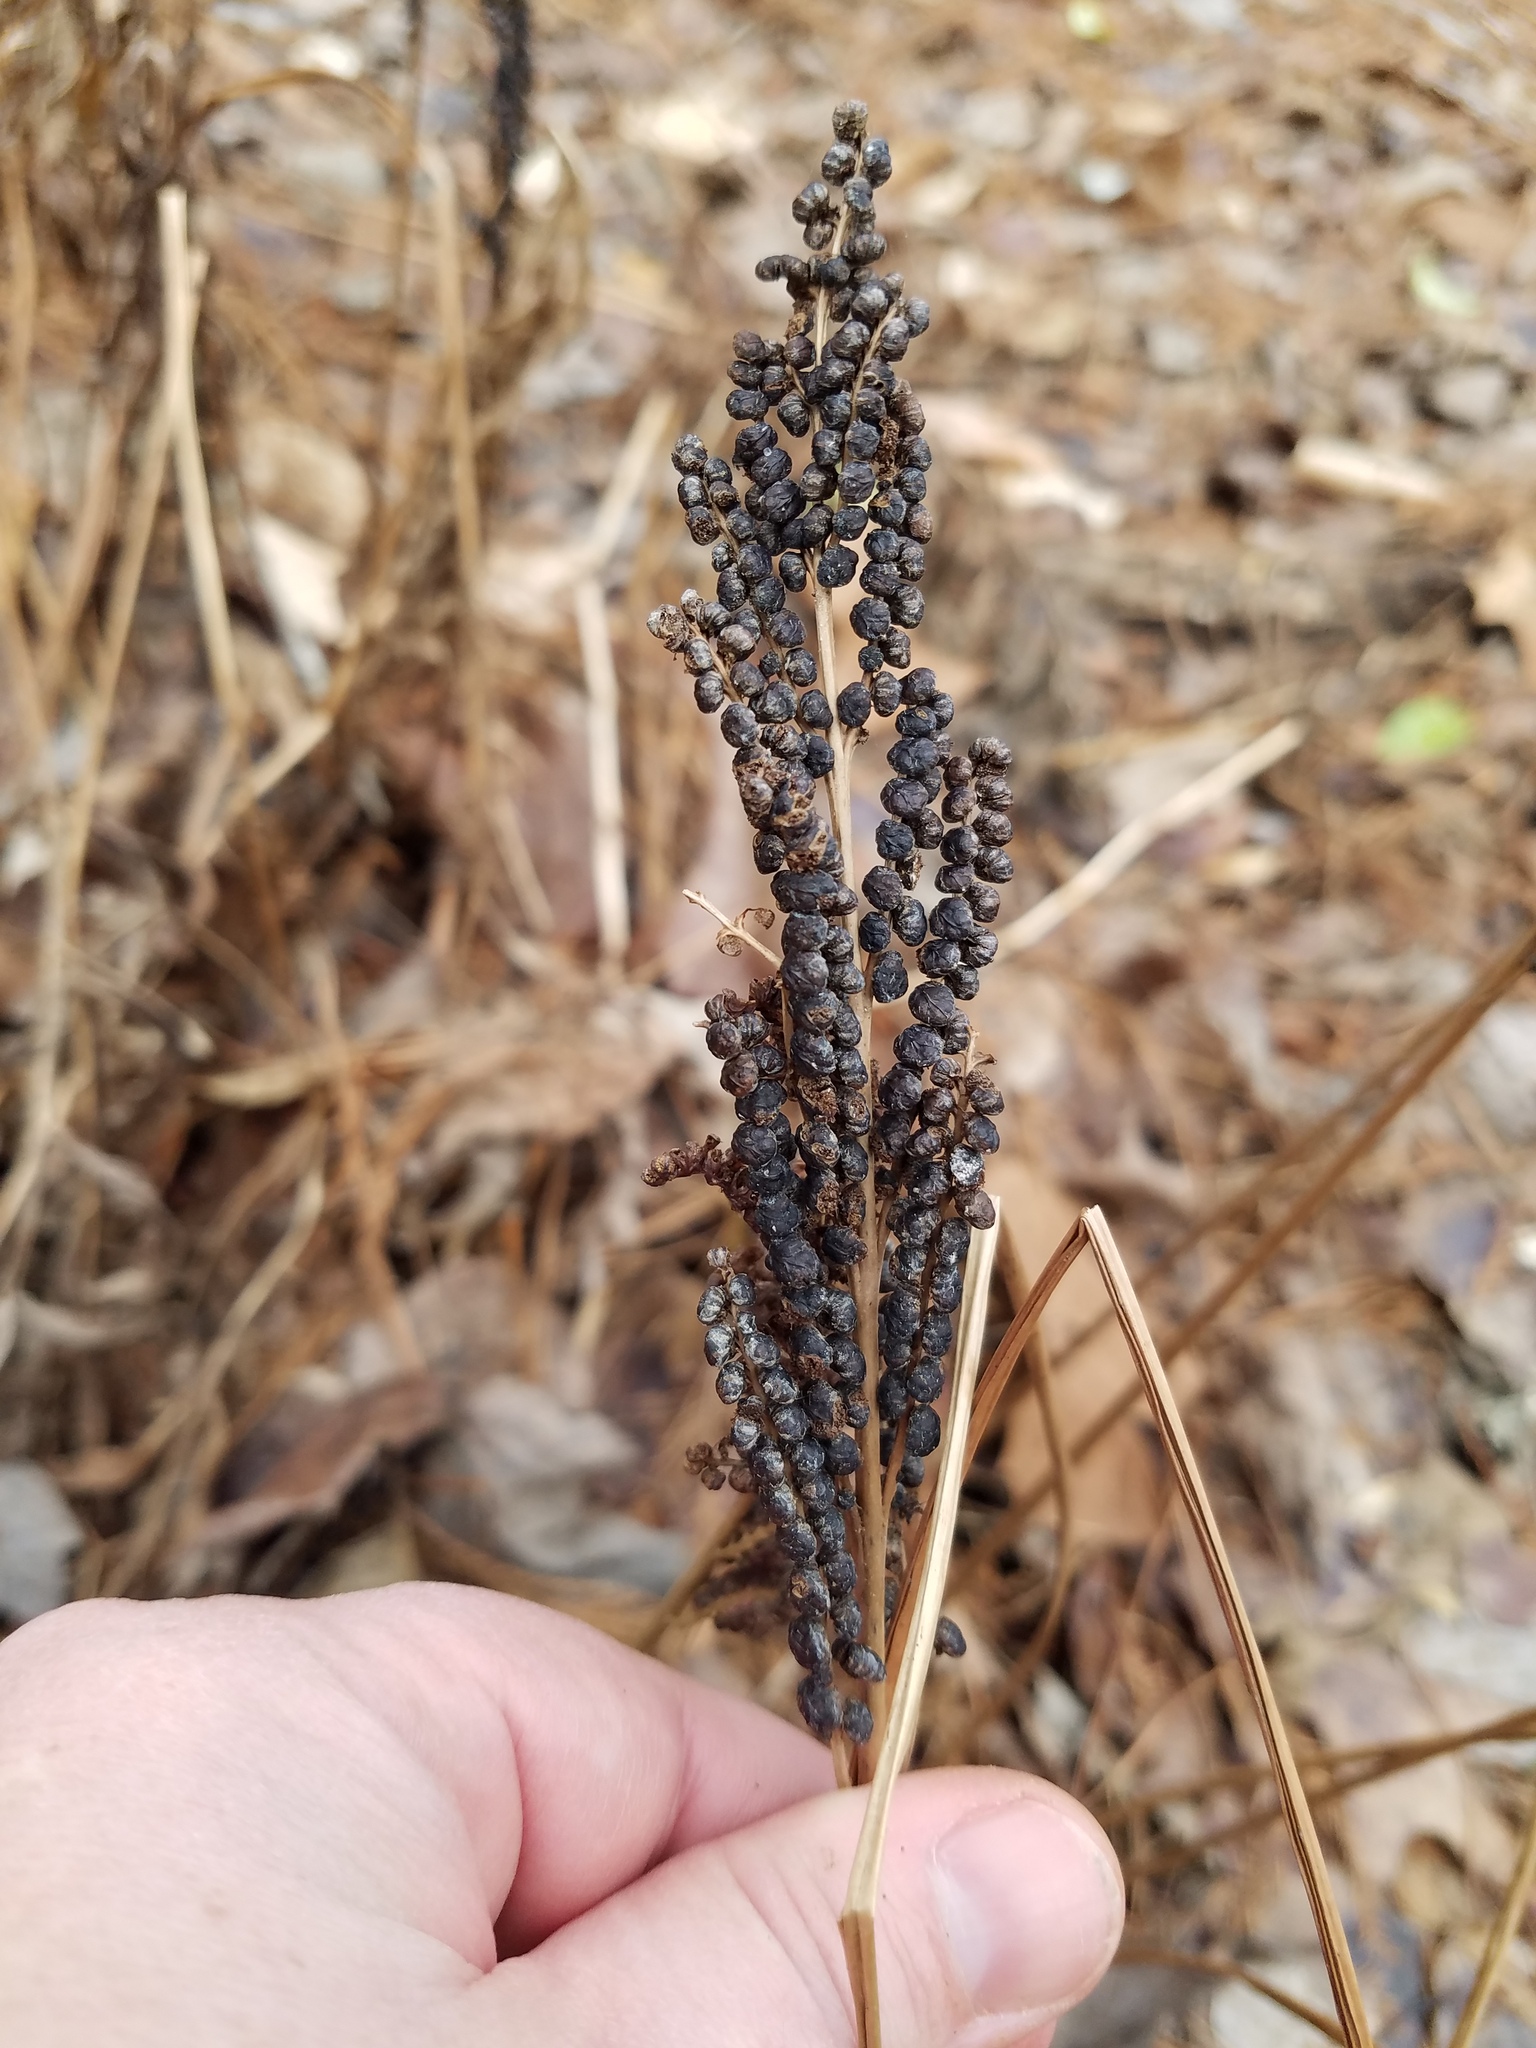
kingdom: Plantae
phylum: Tracheophyta
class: Polypodiopsida
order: Polypodiales
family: Onocleaceae
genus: Onoclea
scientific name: Onoclea sensibilis
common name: Sensitive fern
